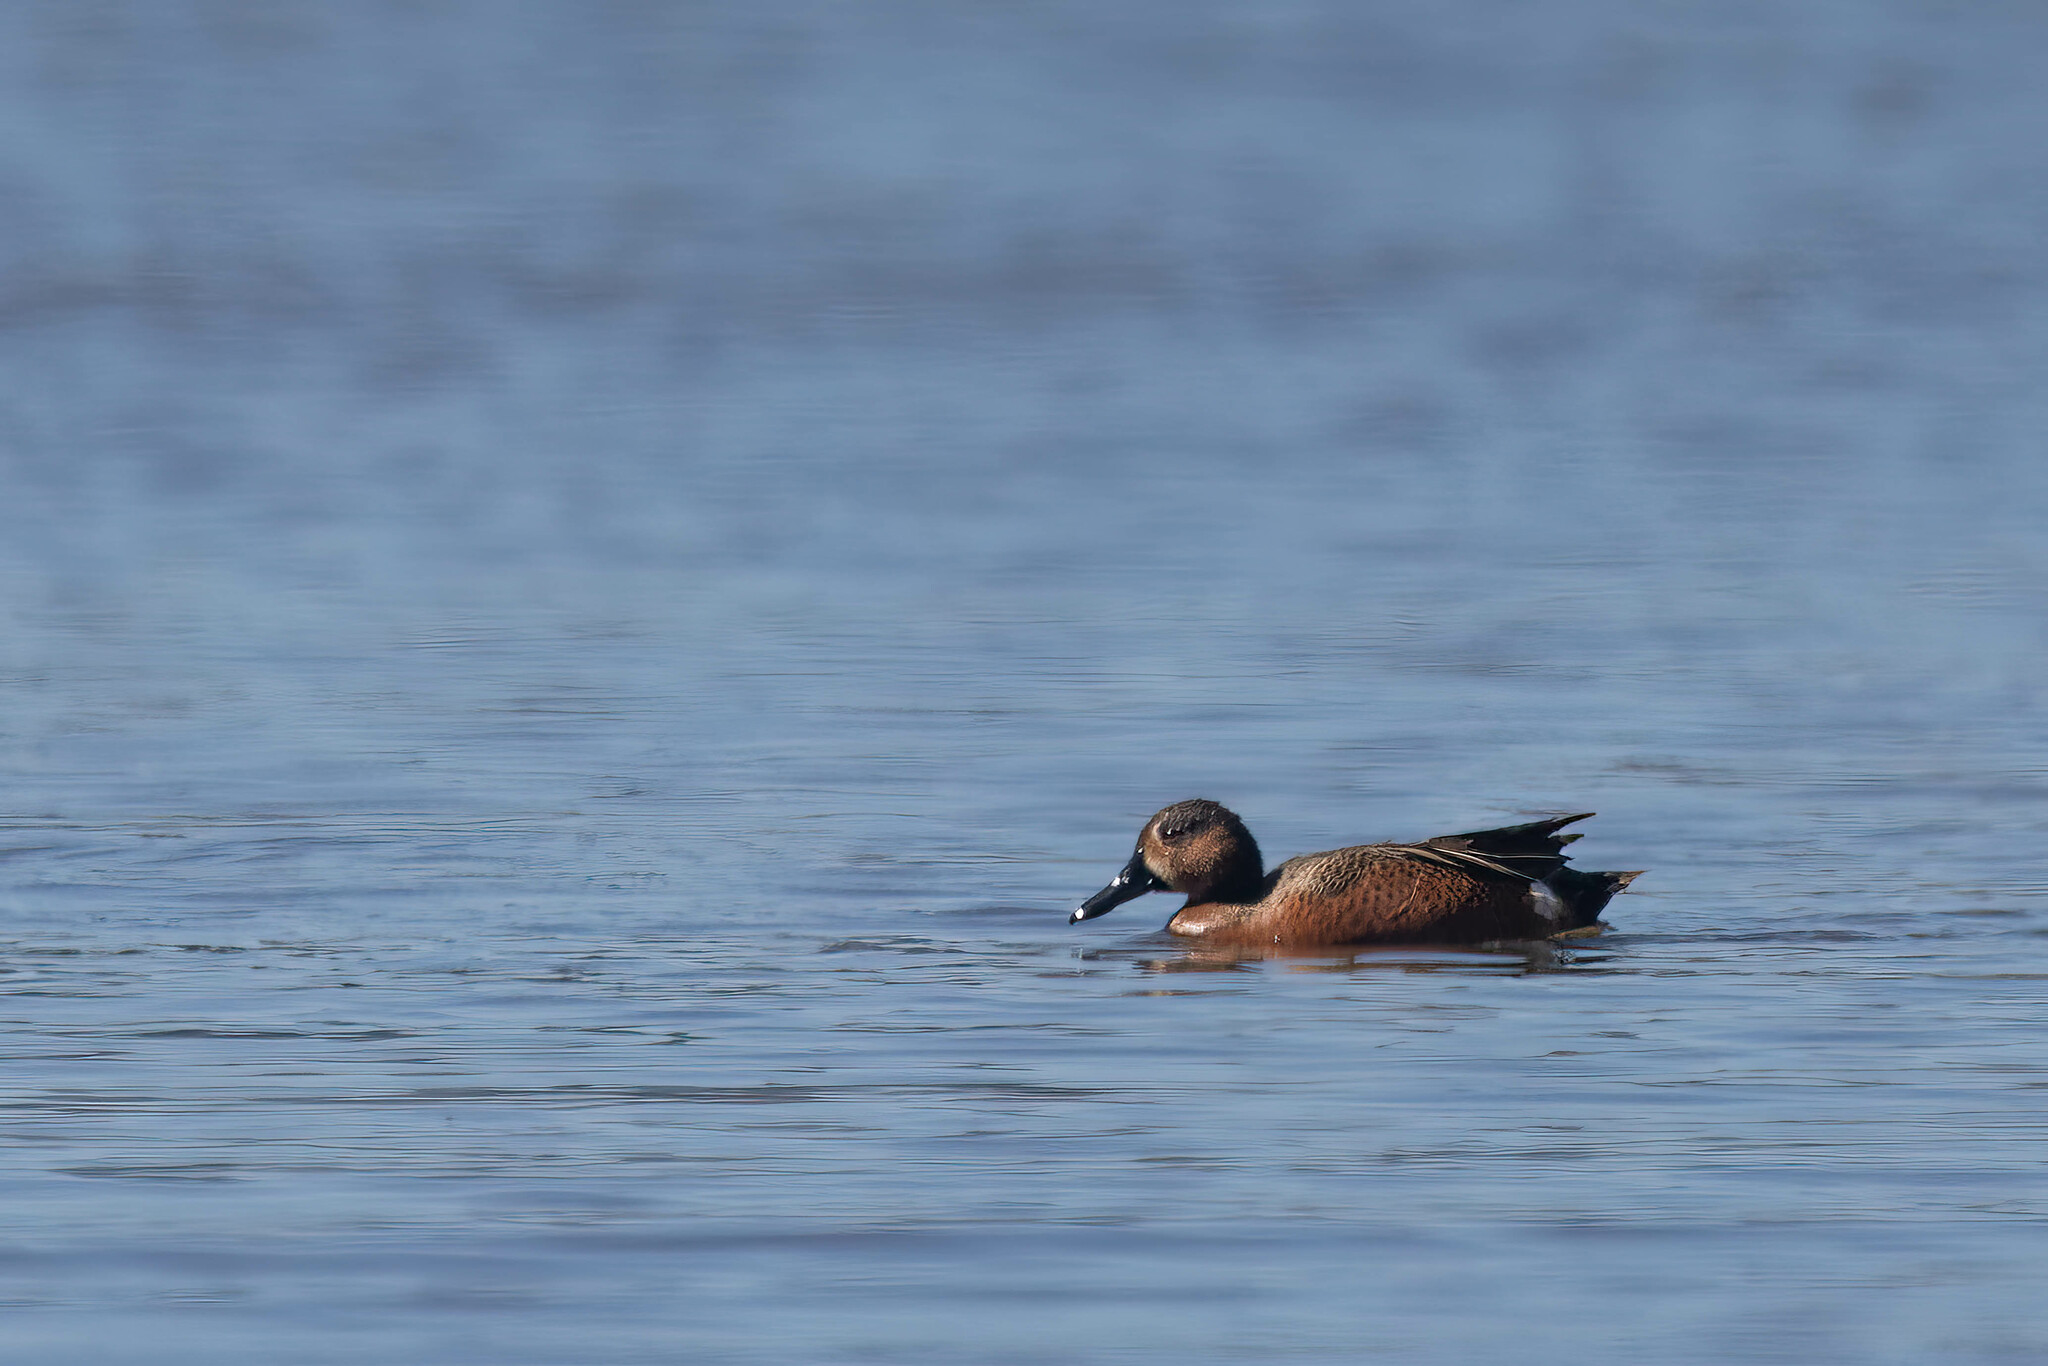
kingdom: Animalia
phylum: Chordata
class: Aves
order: Anseriformes
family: Anatidae
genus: Spatula
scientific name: Spatula
